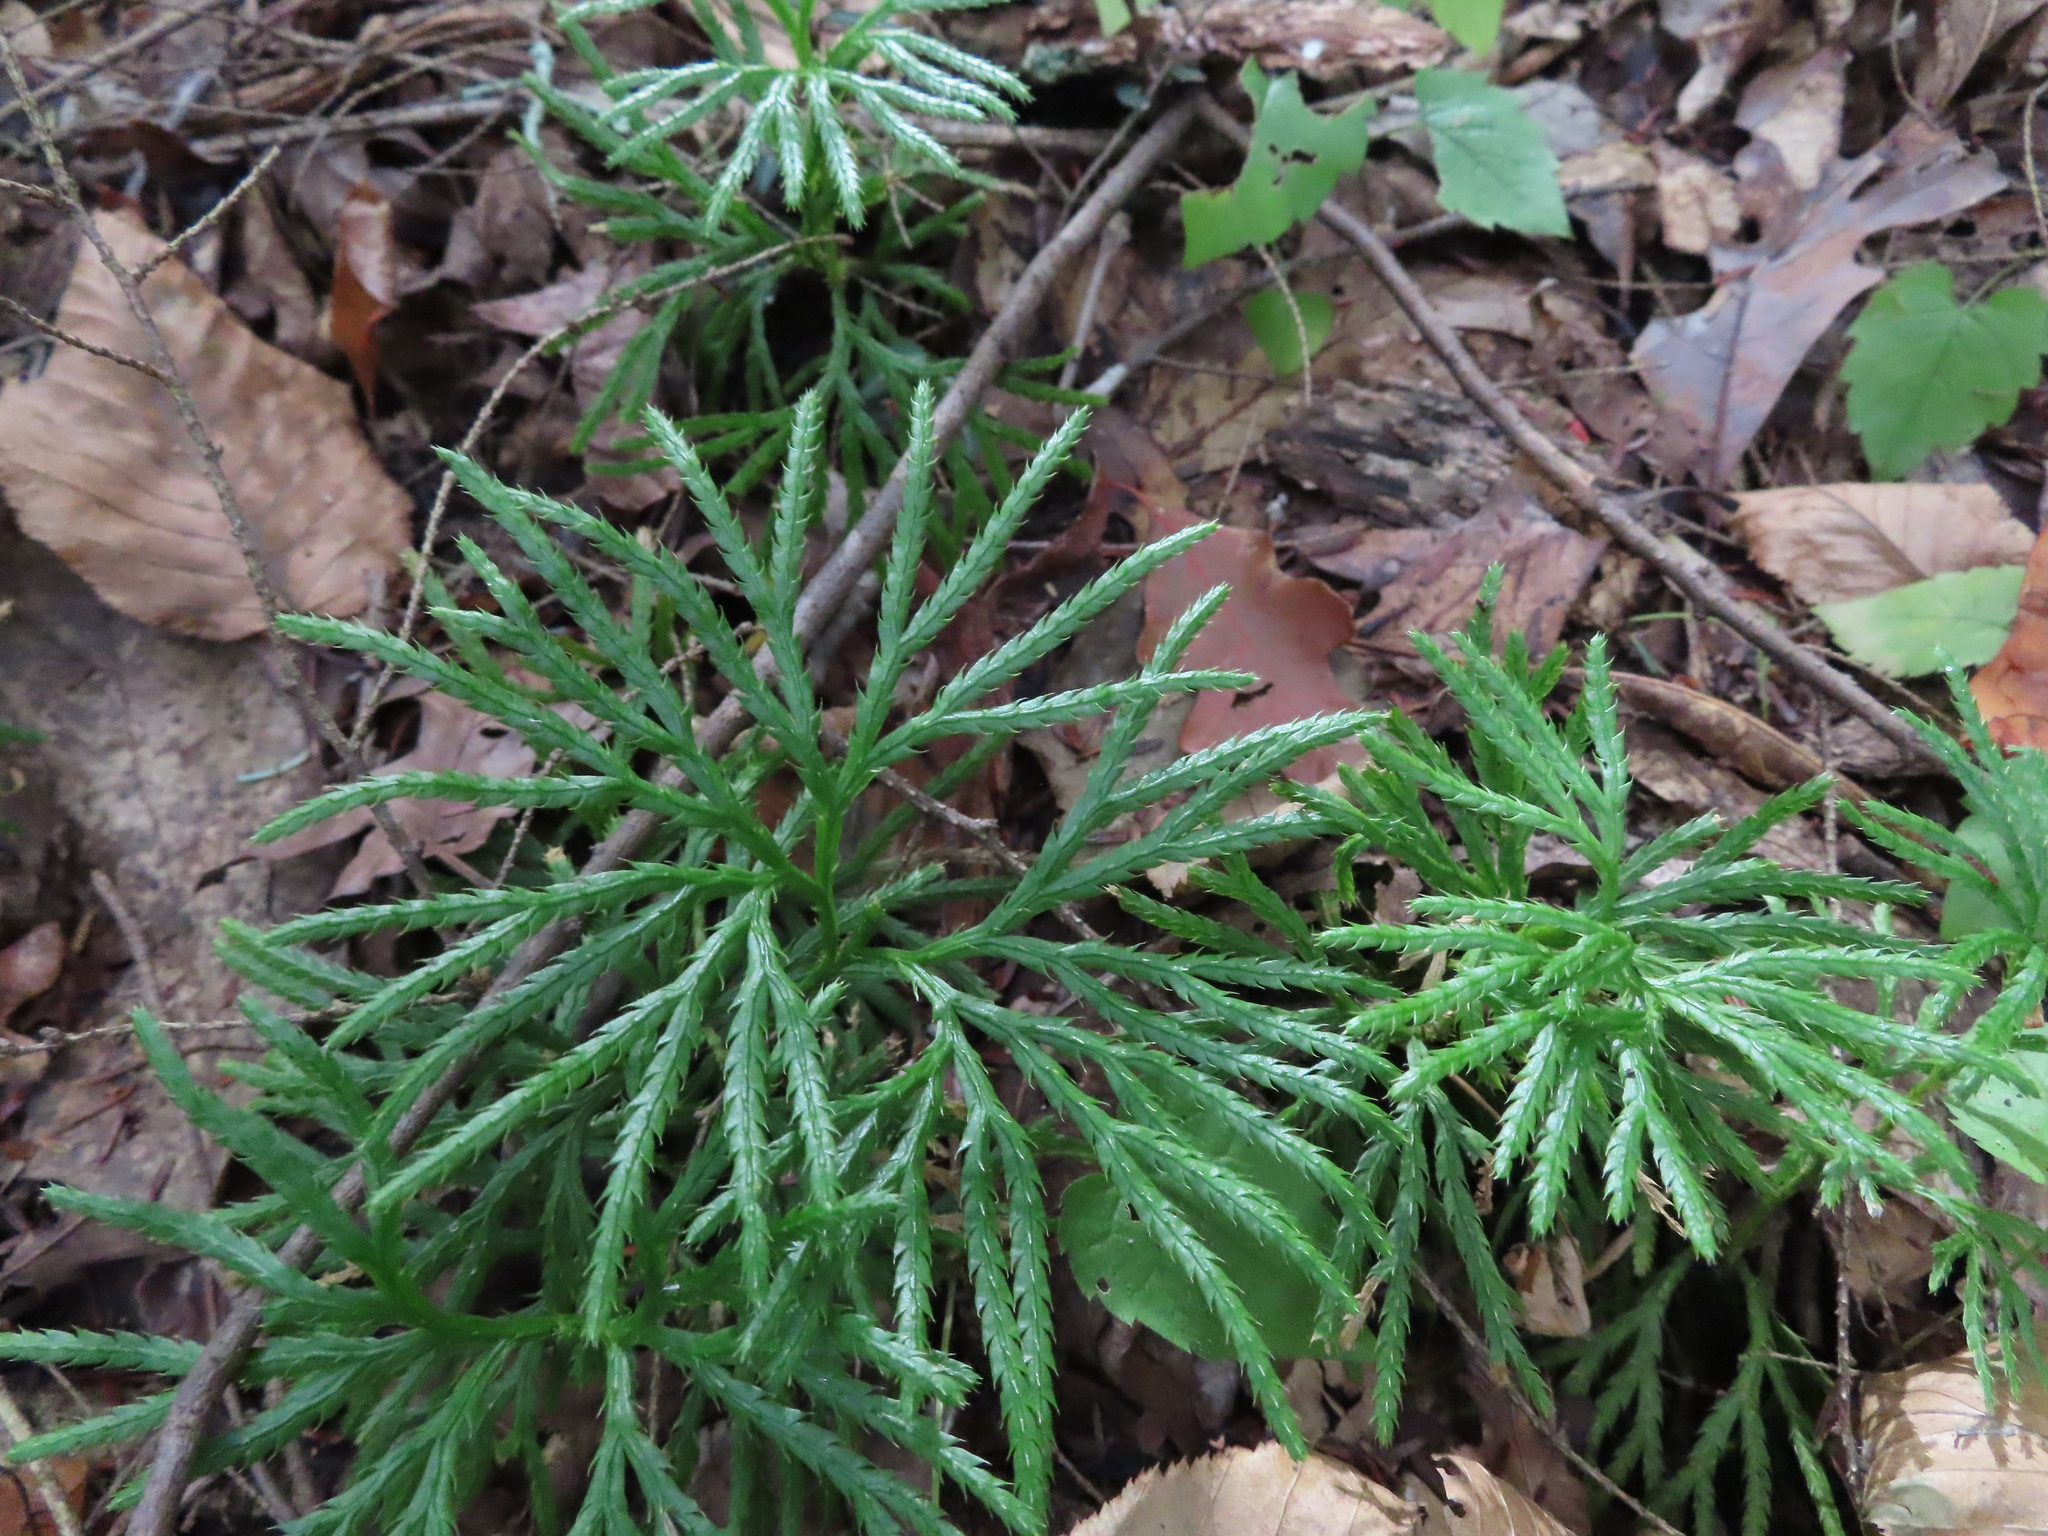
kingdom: Plantae
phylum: Tracheophyta
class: Lycopodiopsida
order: Lycopodiales
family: Lycopodiaceae
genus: Diphasiastrum
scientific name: Diphasiastrum digitatum
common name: Southern running-pine
